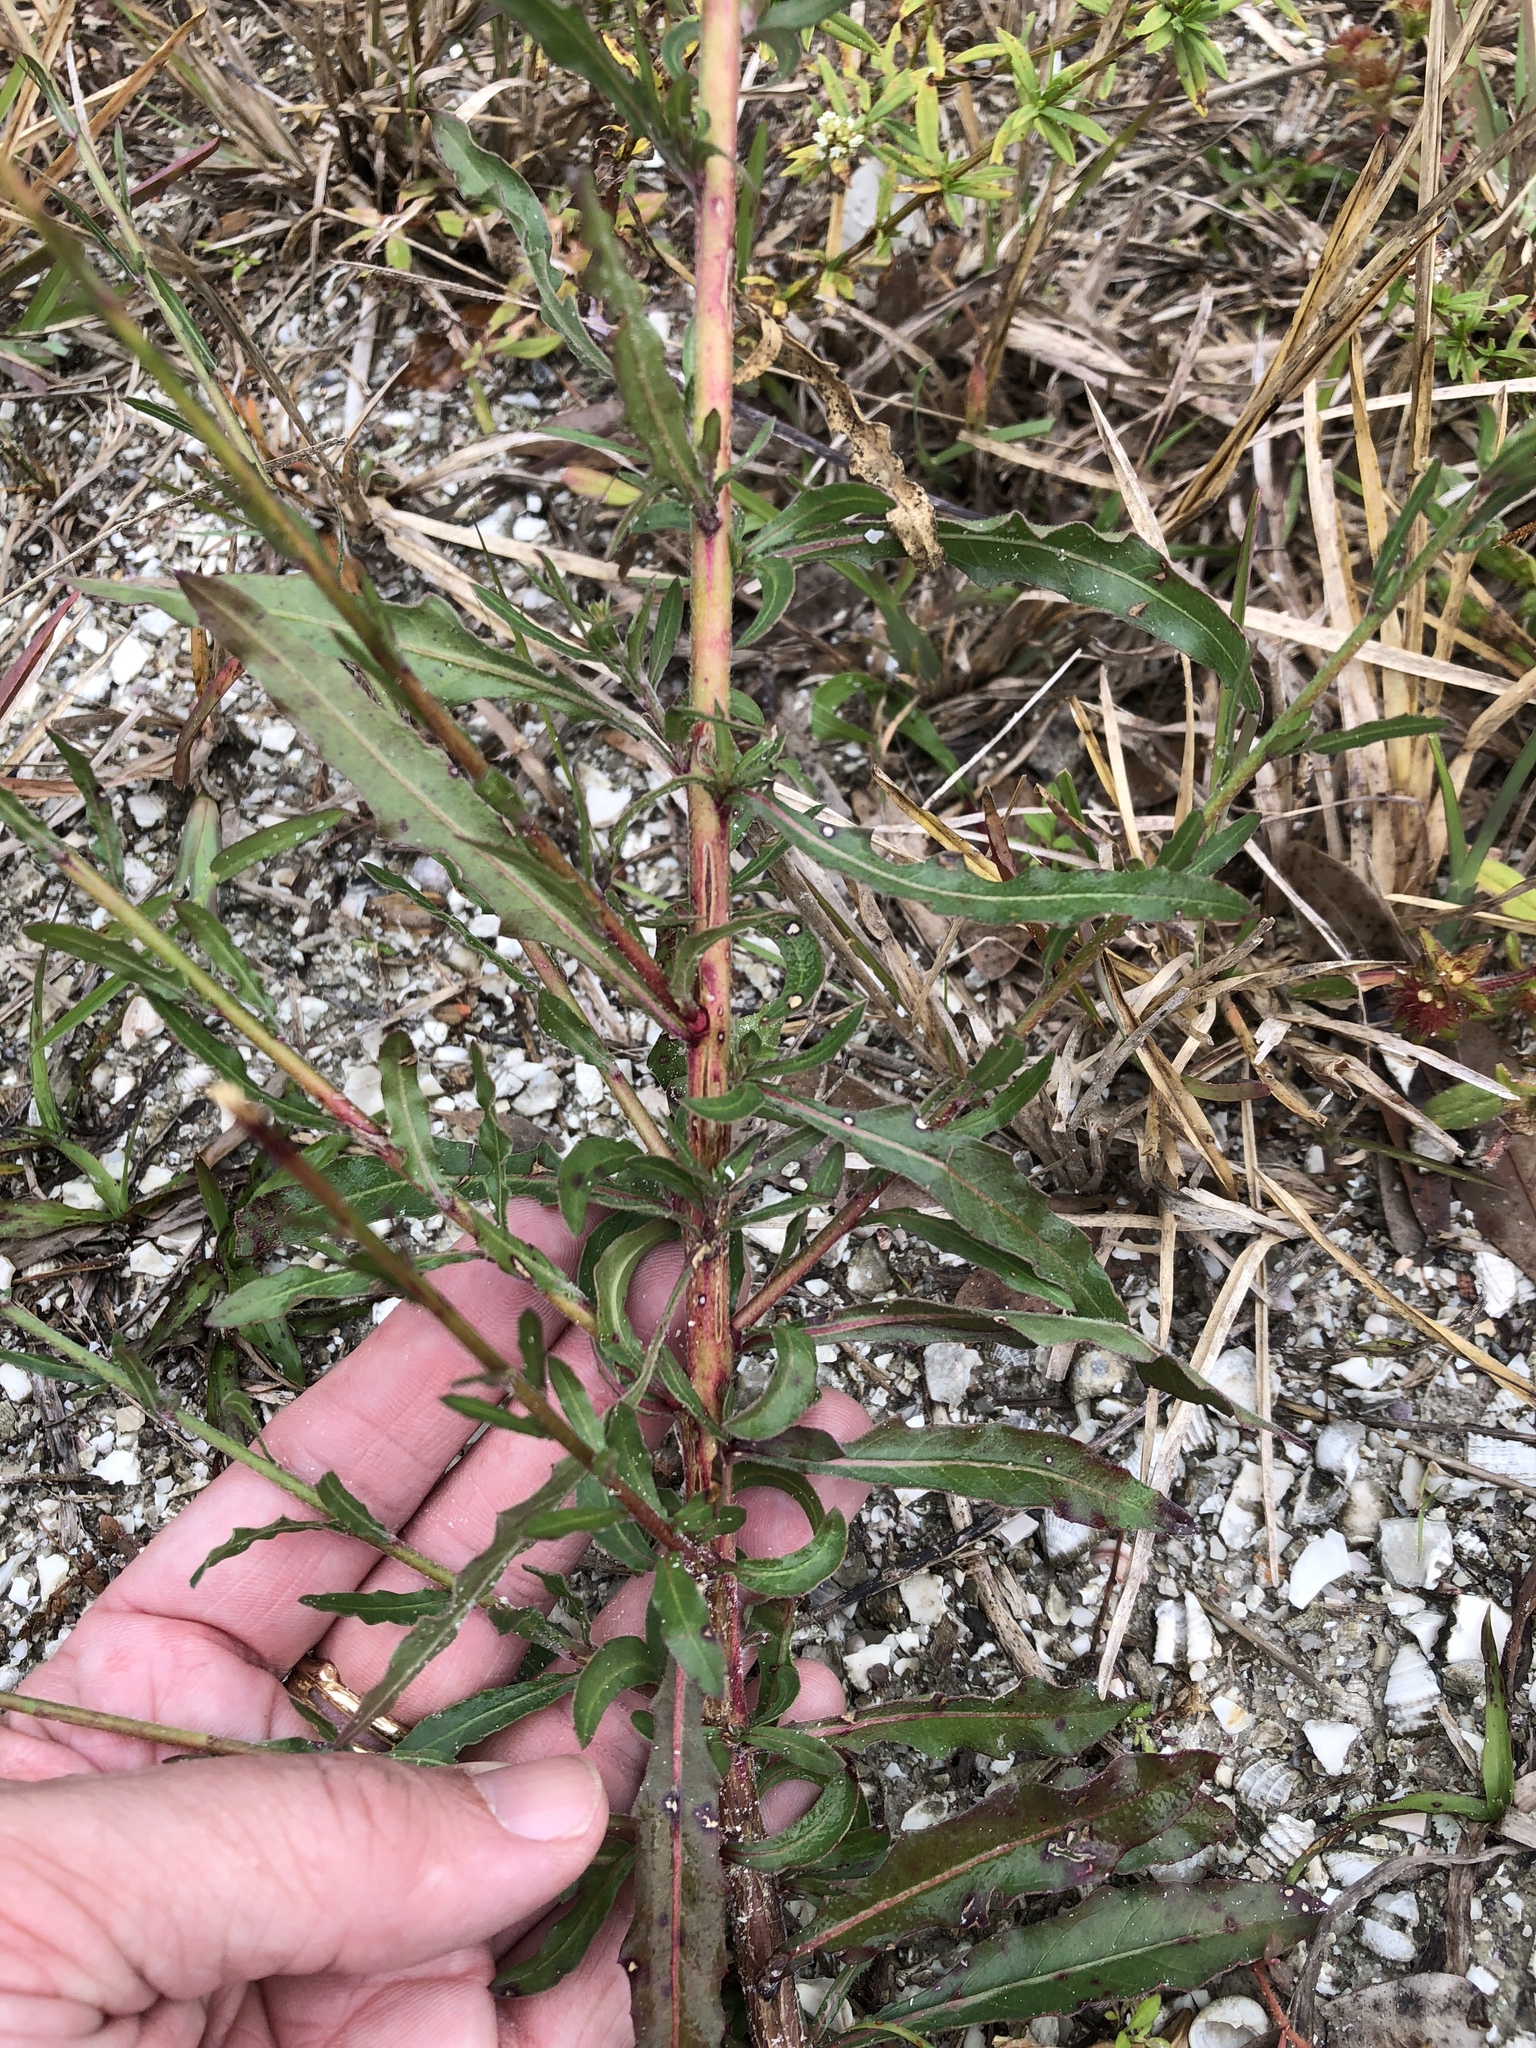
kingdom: Plantae
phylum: Tracheophyta
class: Magnoliopsida
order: Myrtales
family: Onagraceae
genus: Oenothera
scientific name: Oenothera simulans
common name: Southern beeblossom
